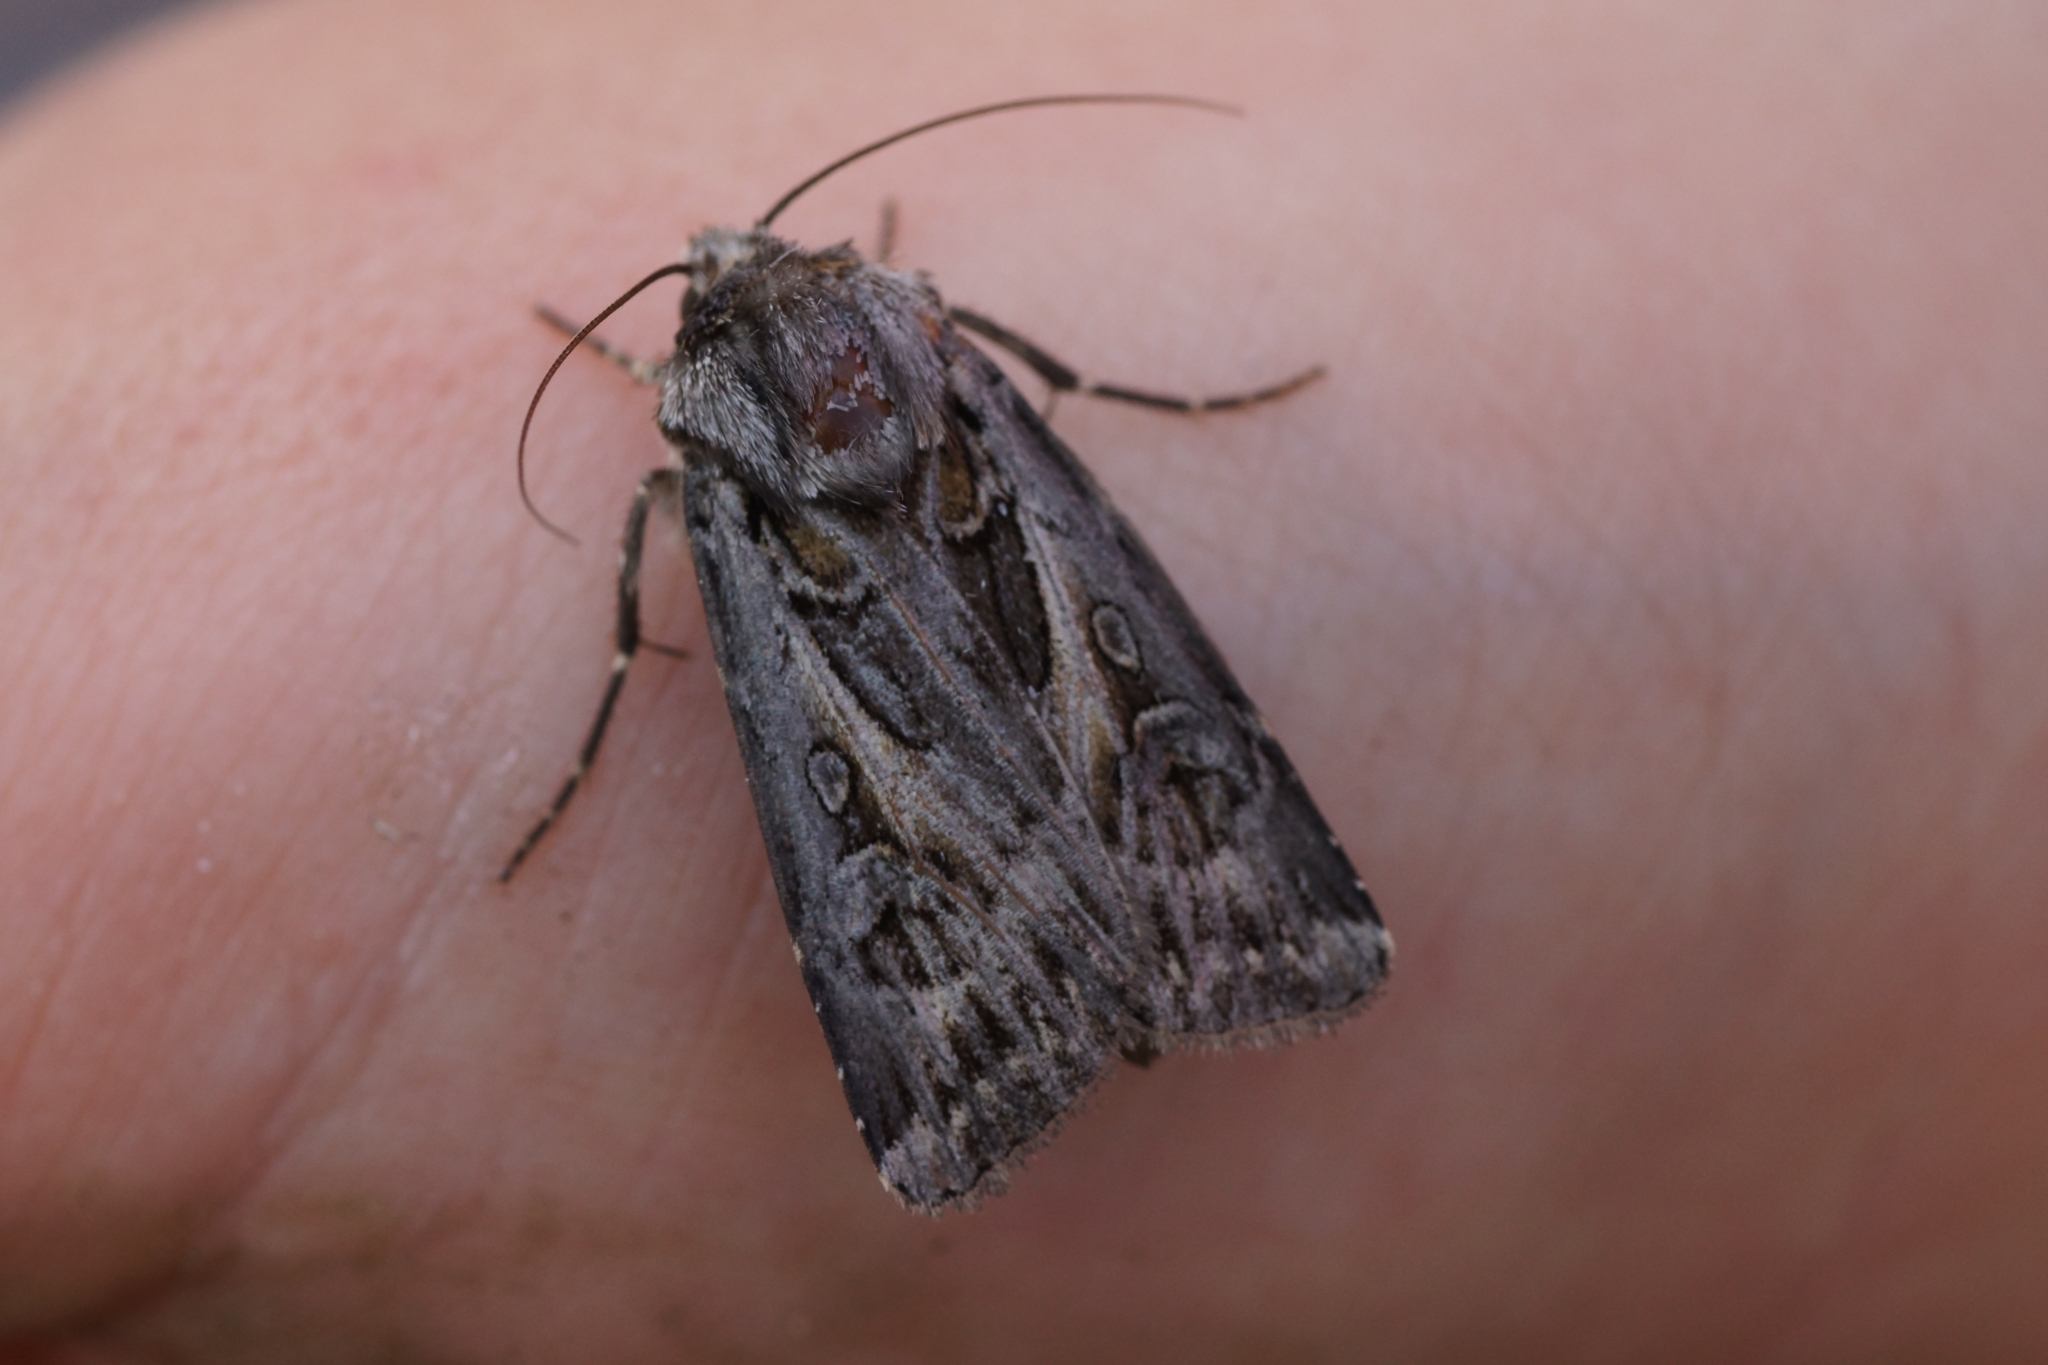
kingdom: Animalia
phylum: Arthropoda
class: Insecta
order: Lepidoptera
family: Noctuidae
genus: Agrotis
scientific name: Agrotis vestigialis
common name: Archer's dart
